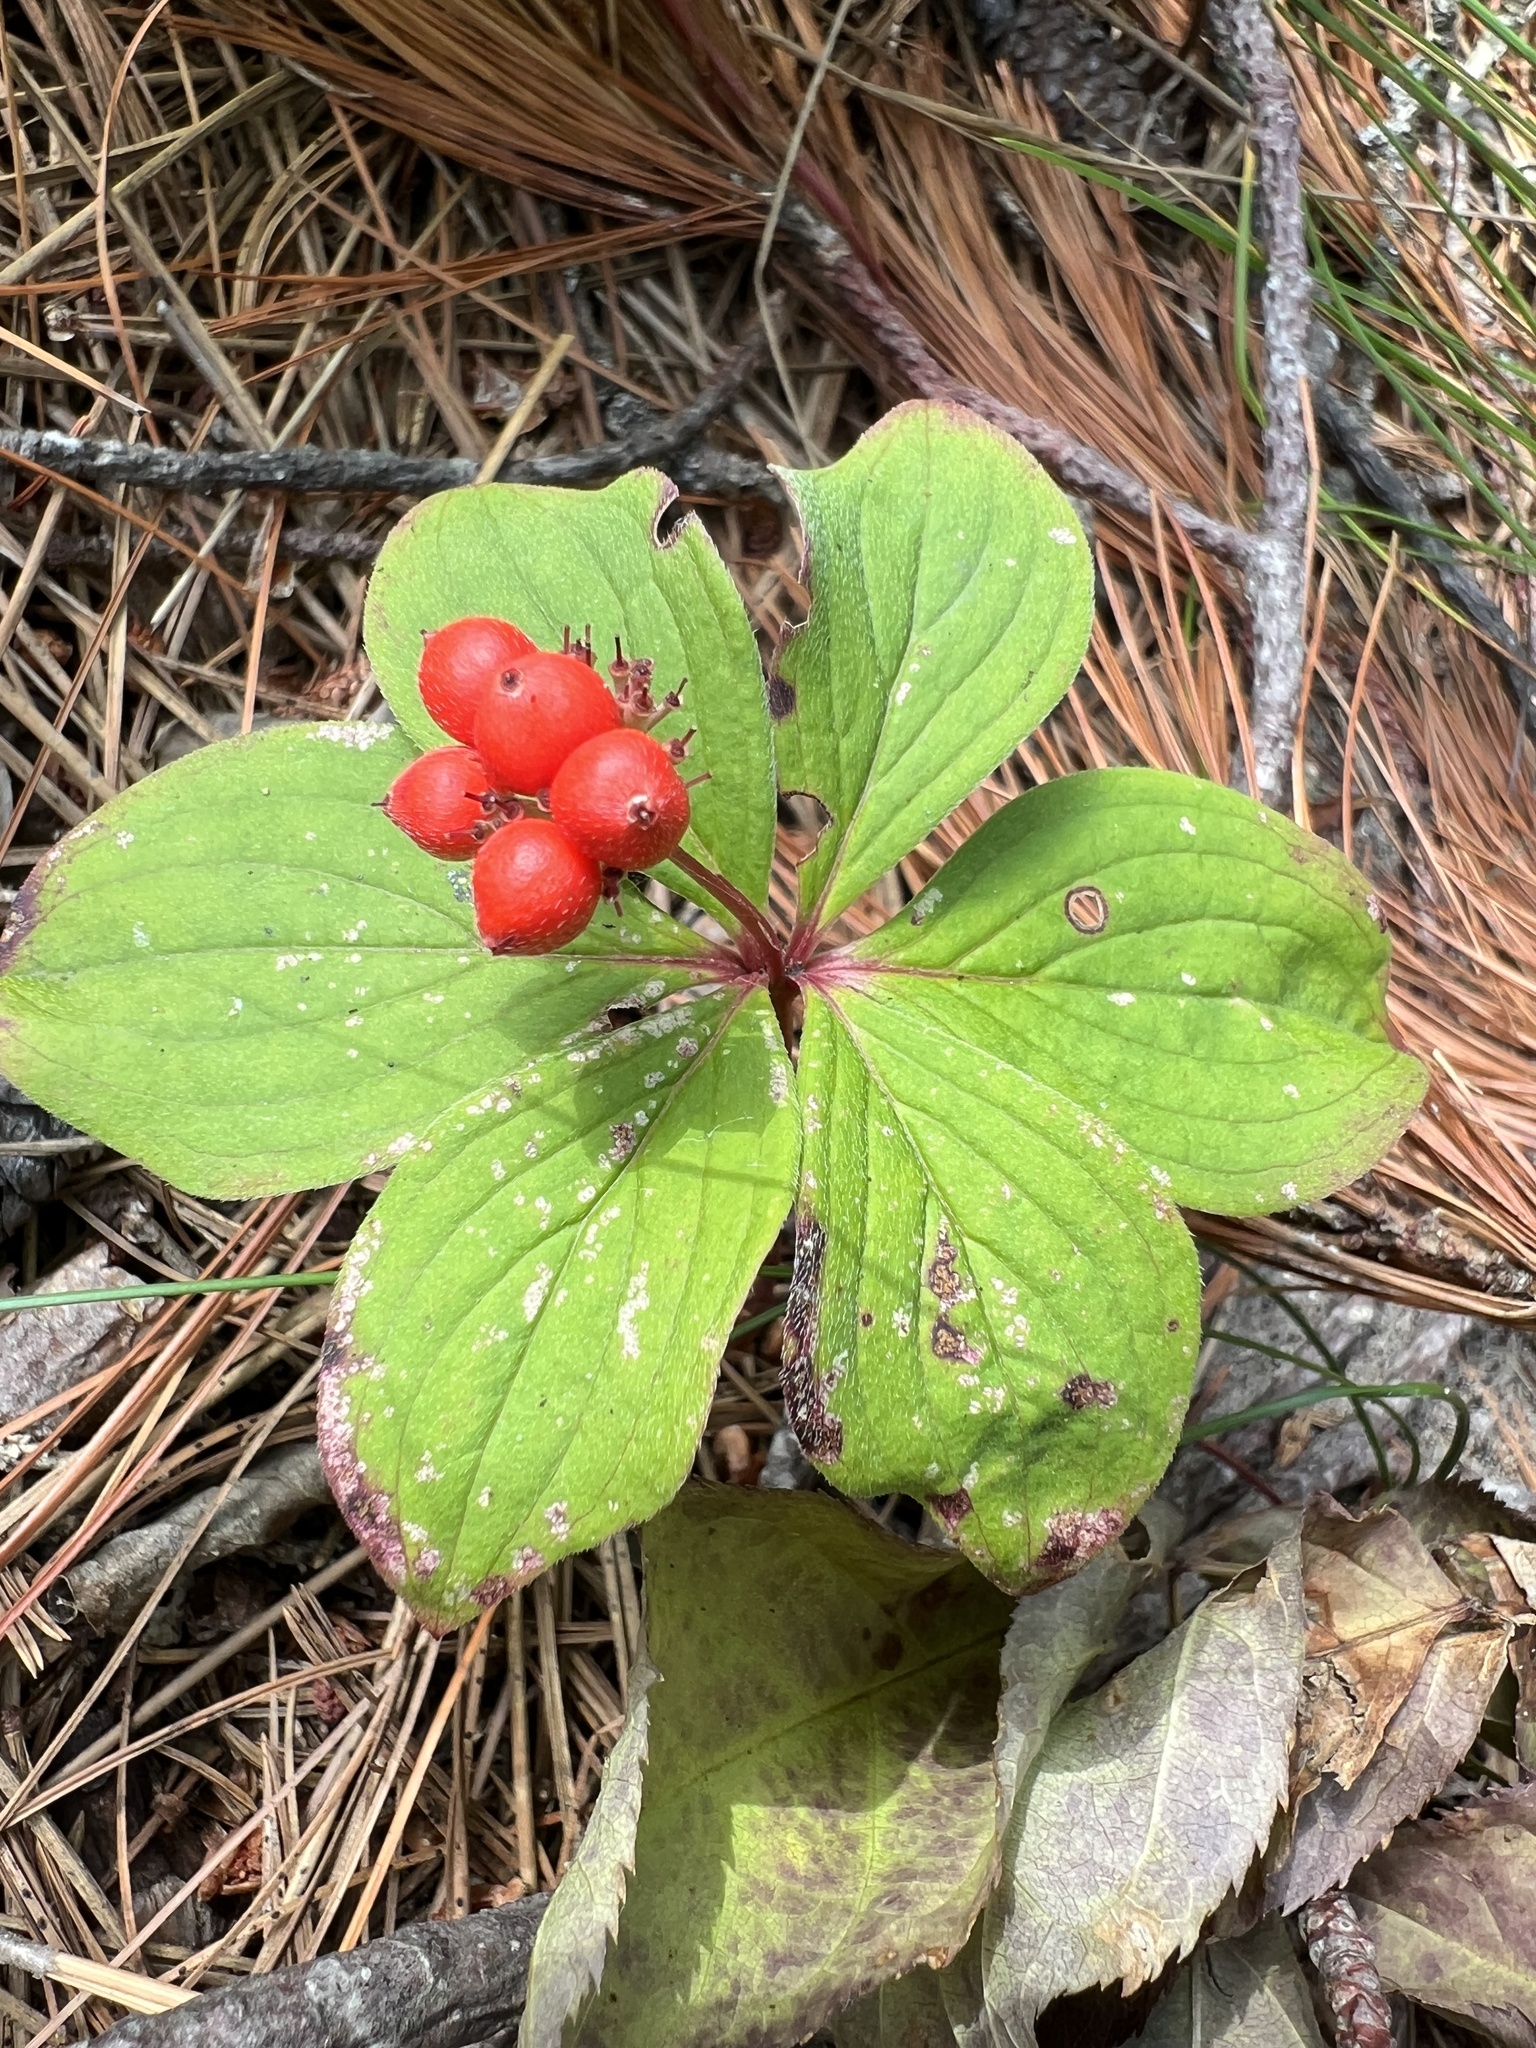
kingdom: Plantae
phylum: Tracheophyta
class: Magnoliopsida
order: Cornales
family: Cornaceae
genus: Cornus
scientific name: Cornus canadensis
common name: Creeping dogwood
